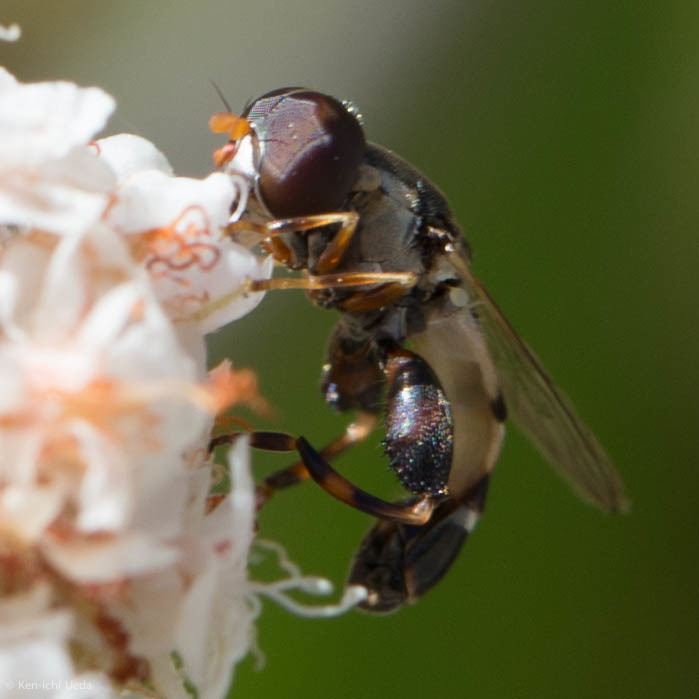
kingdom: Animalia
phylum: Arthropoda
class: Insecta
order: Diptera
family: Syrphidae
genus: Syritta
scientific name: Syritta pipiens
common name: Hover fly
